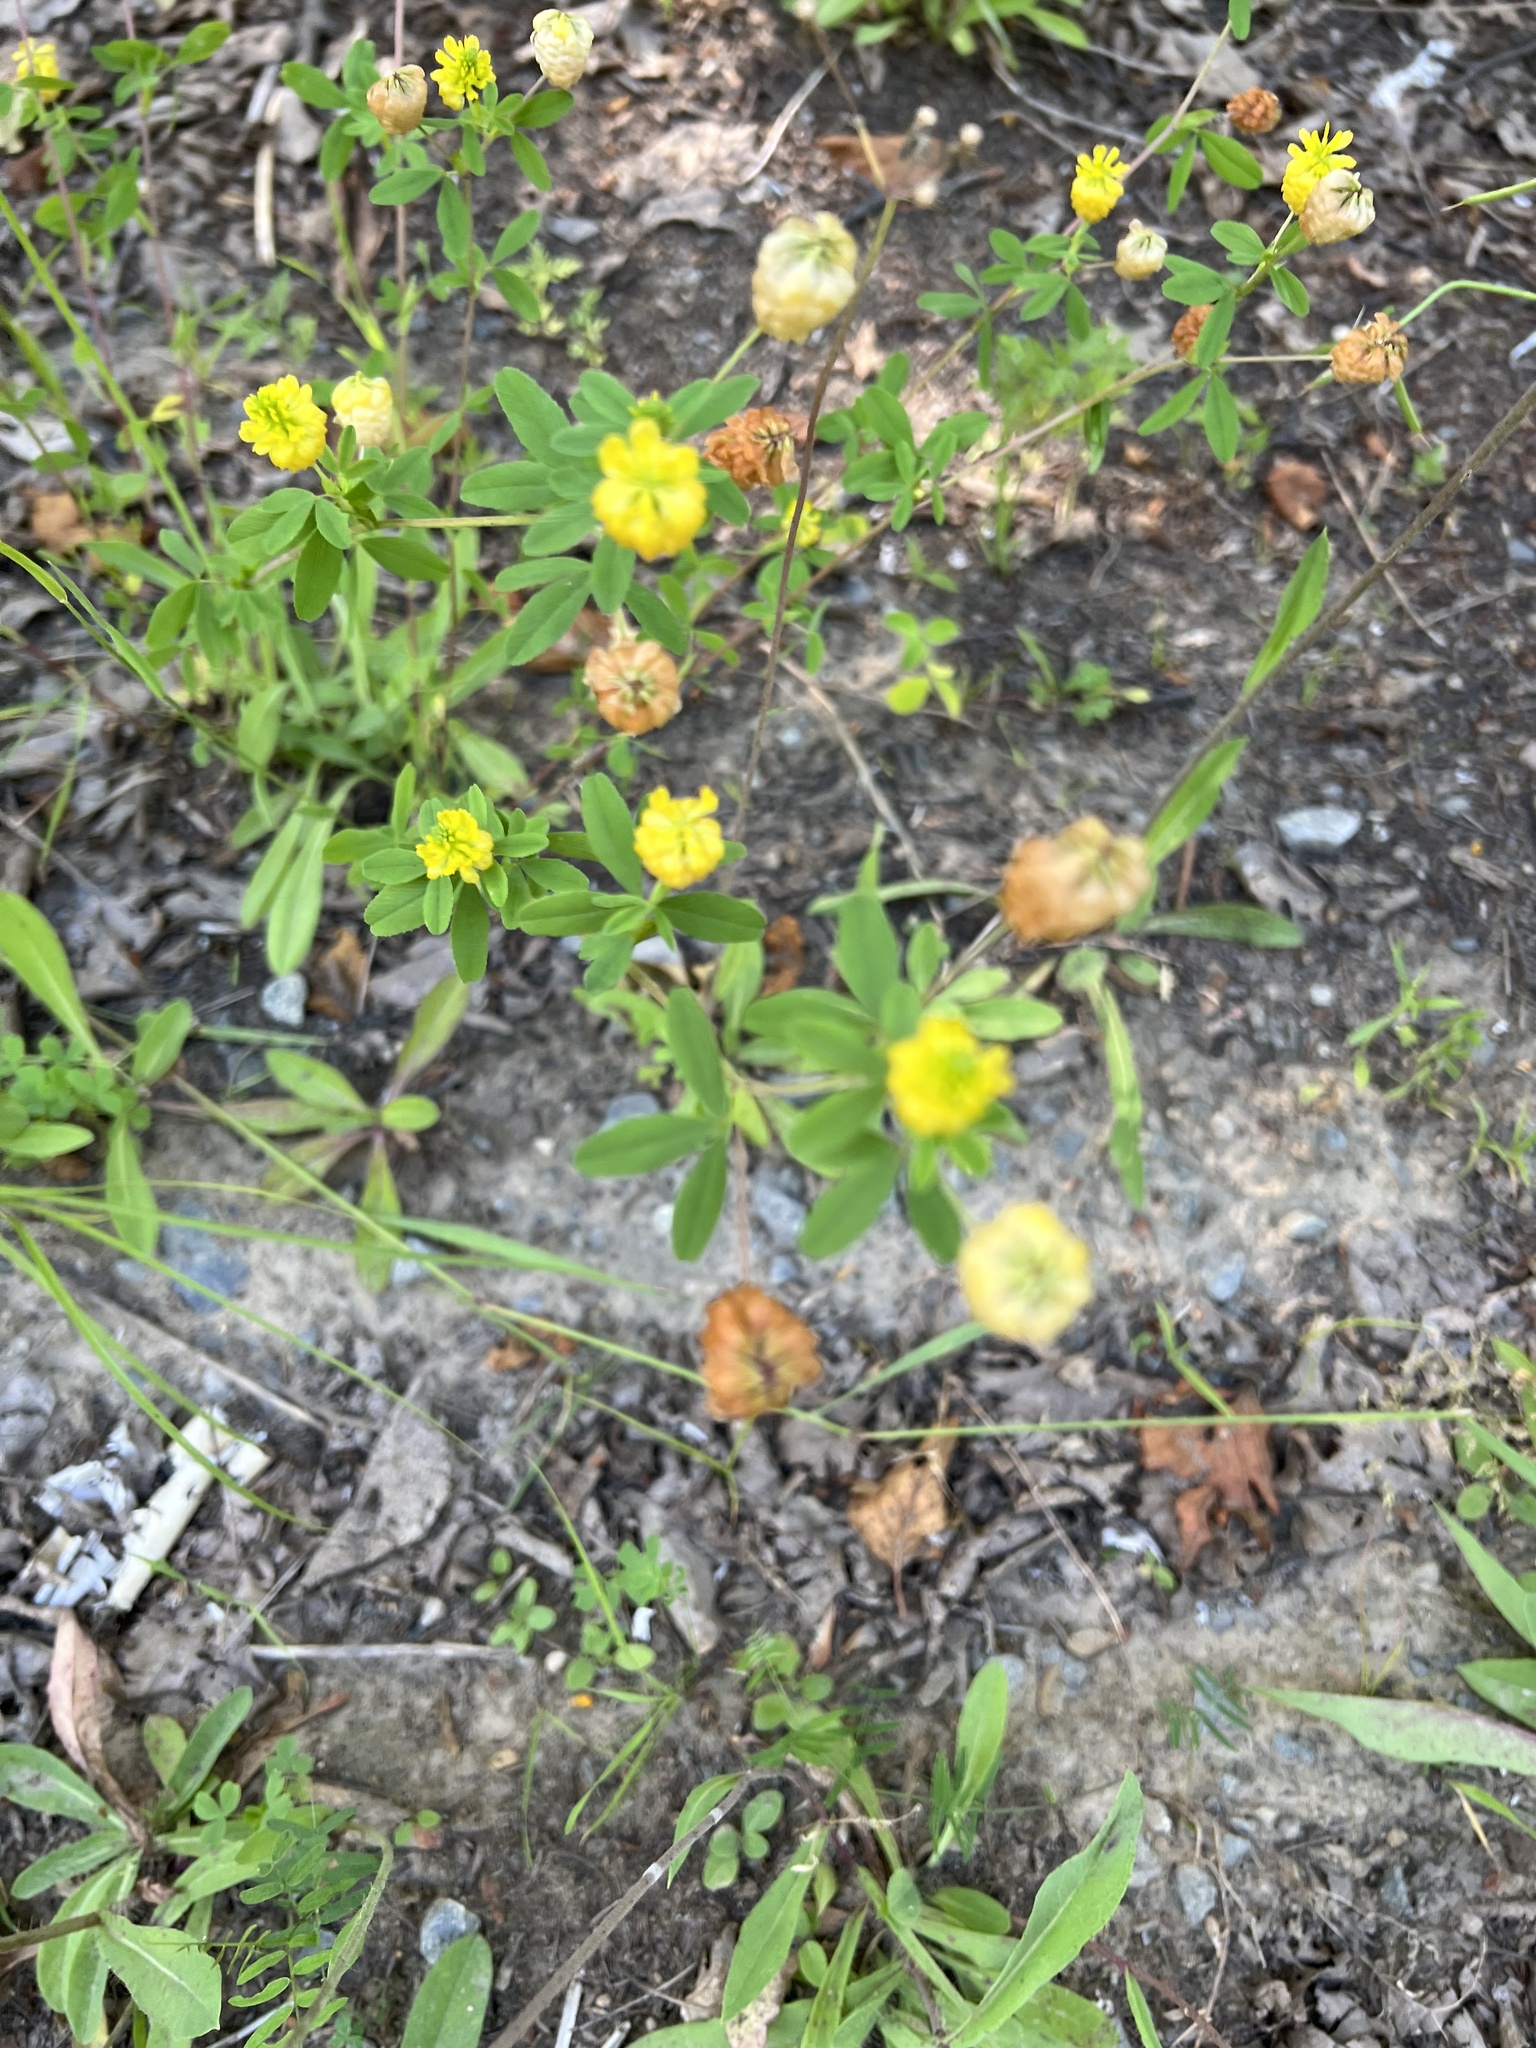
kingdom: Plantae
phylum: Tracheophyta
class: Magnoliopsida
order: Fabales
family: Fabaceae
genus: Trifolium
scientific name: Trifolium aureum
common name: Golden clover
